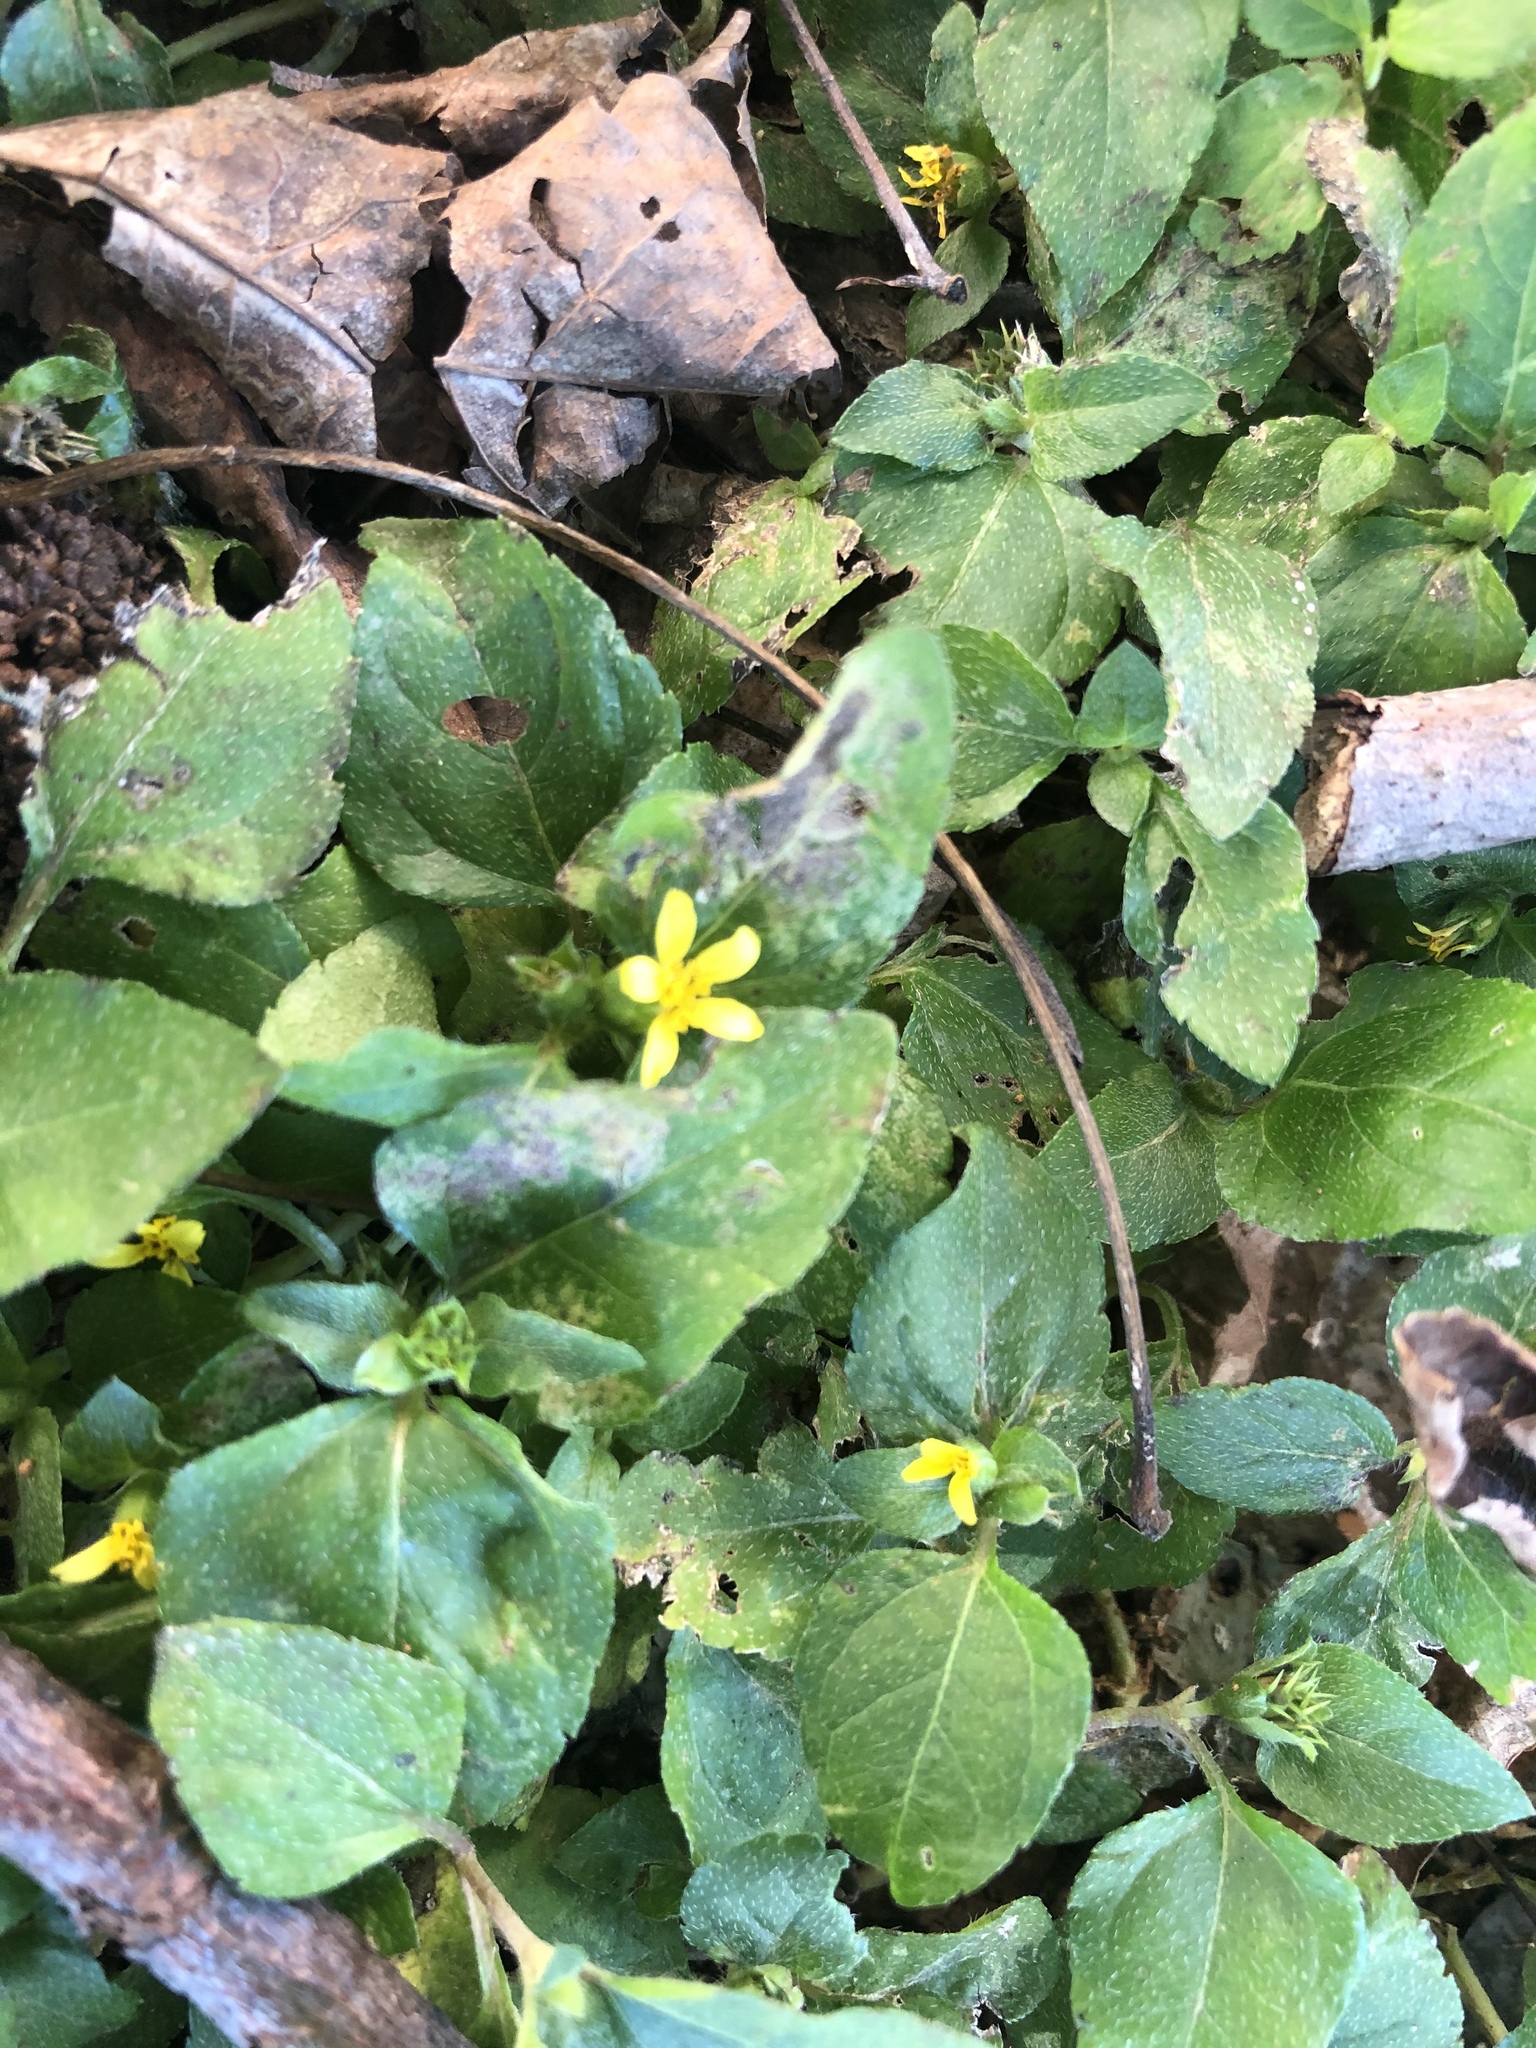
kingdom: Plantae
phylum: Tracheophyta
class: Magnoliopsida
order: Asterales
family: Asteraceae
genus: Calyptocarpus
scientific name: Calyptocarpus vialis
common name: Straggler daisy
